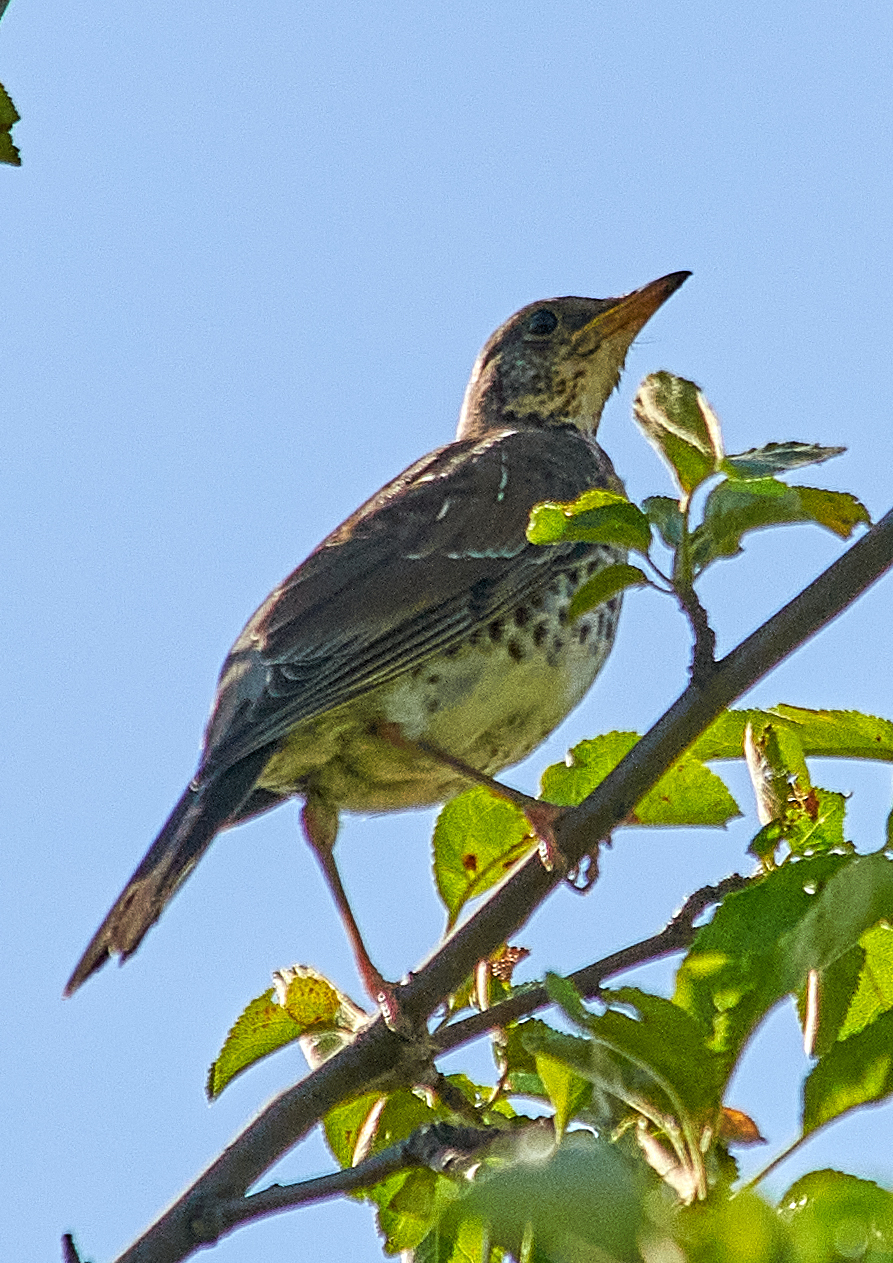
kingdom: Animalia
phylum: Chordata
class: Aves
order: Passeriformes
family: Turdidae
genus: Turdus
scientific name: Turdus pilaris
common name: Fieldfare
